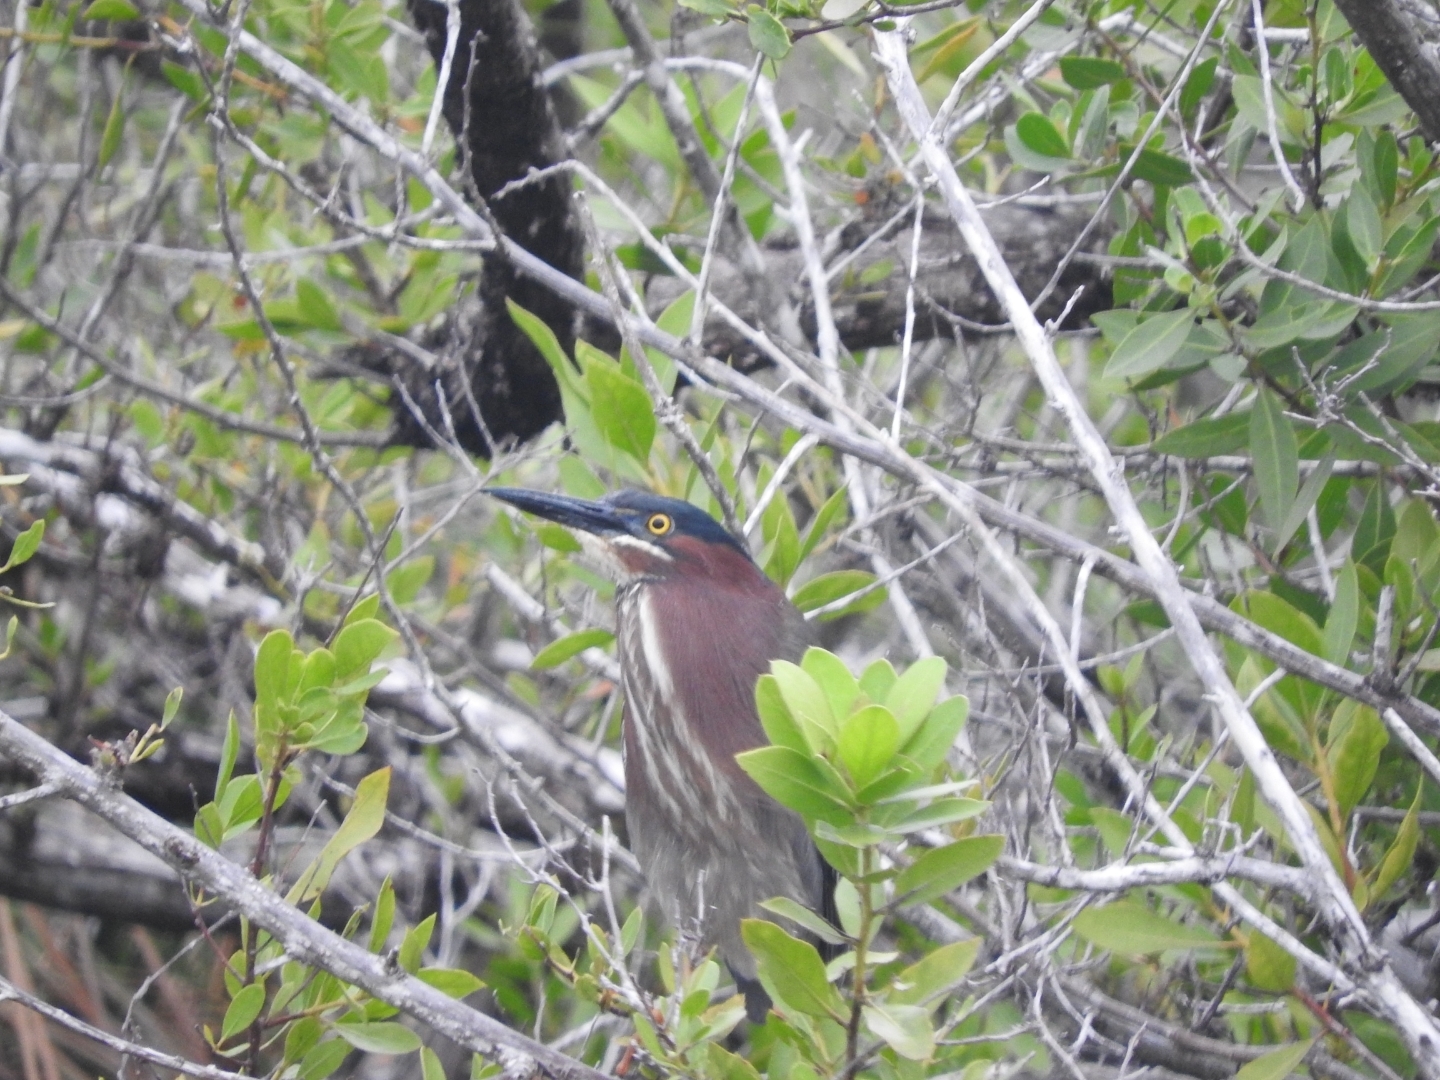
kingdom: Animalia
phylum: Chordata
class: Aves
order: Pelecaniformes
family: Ardeidae
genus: Butorides
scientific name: Butorides virescens
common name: Green heron
